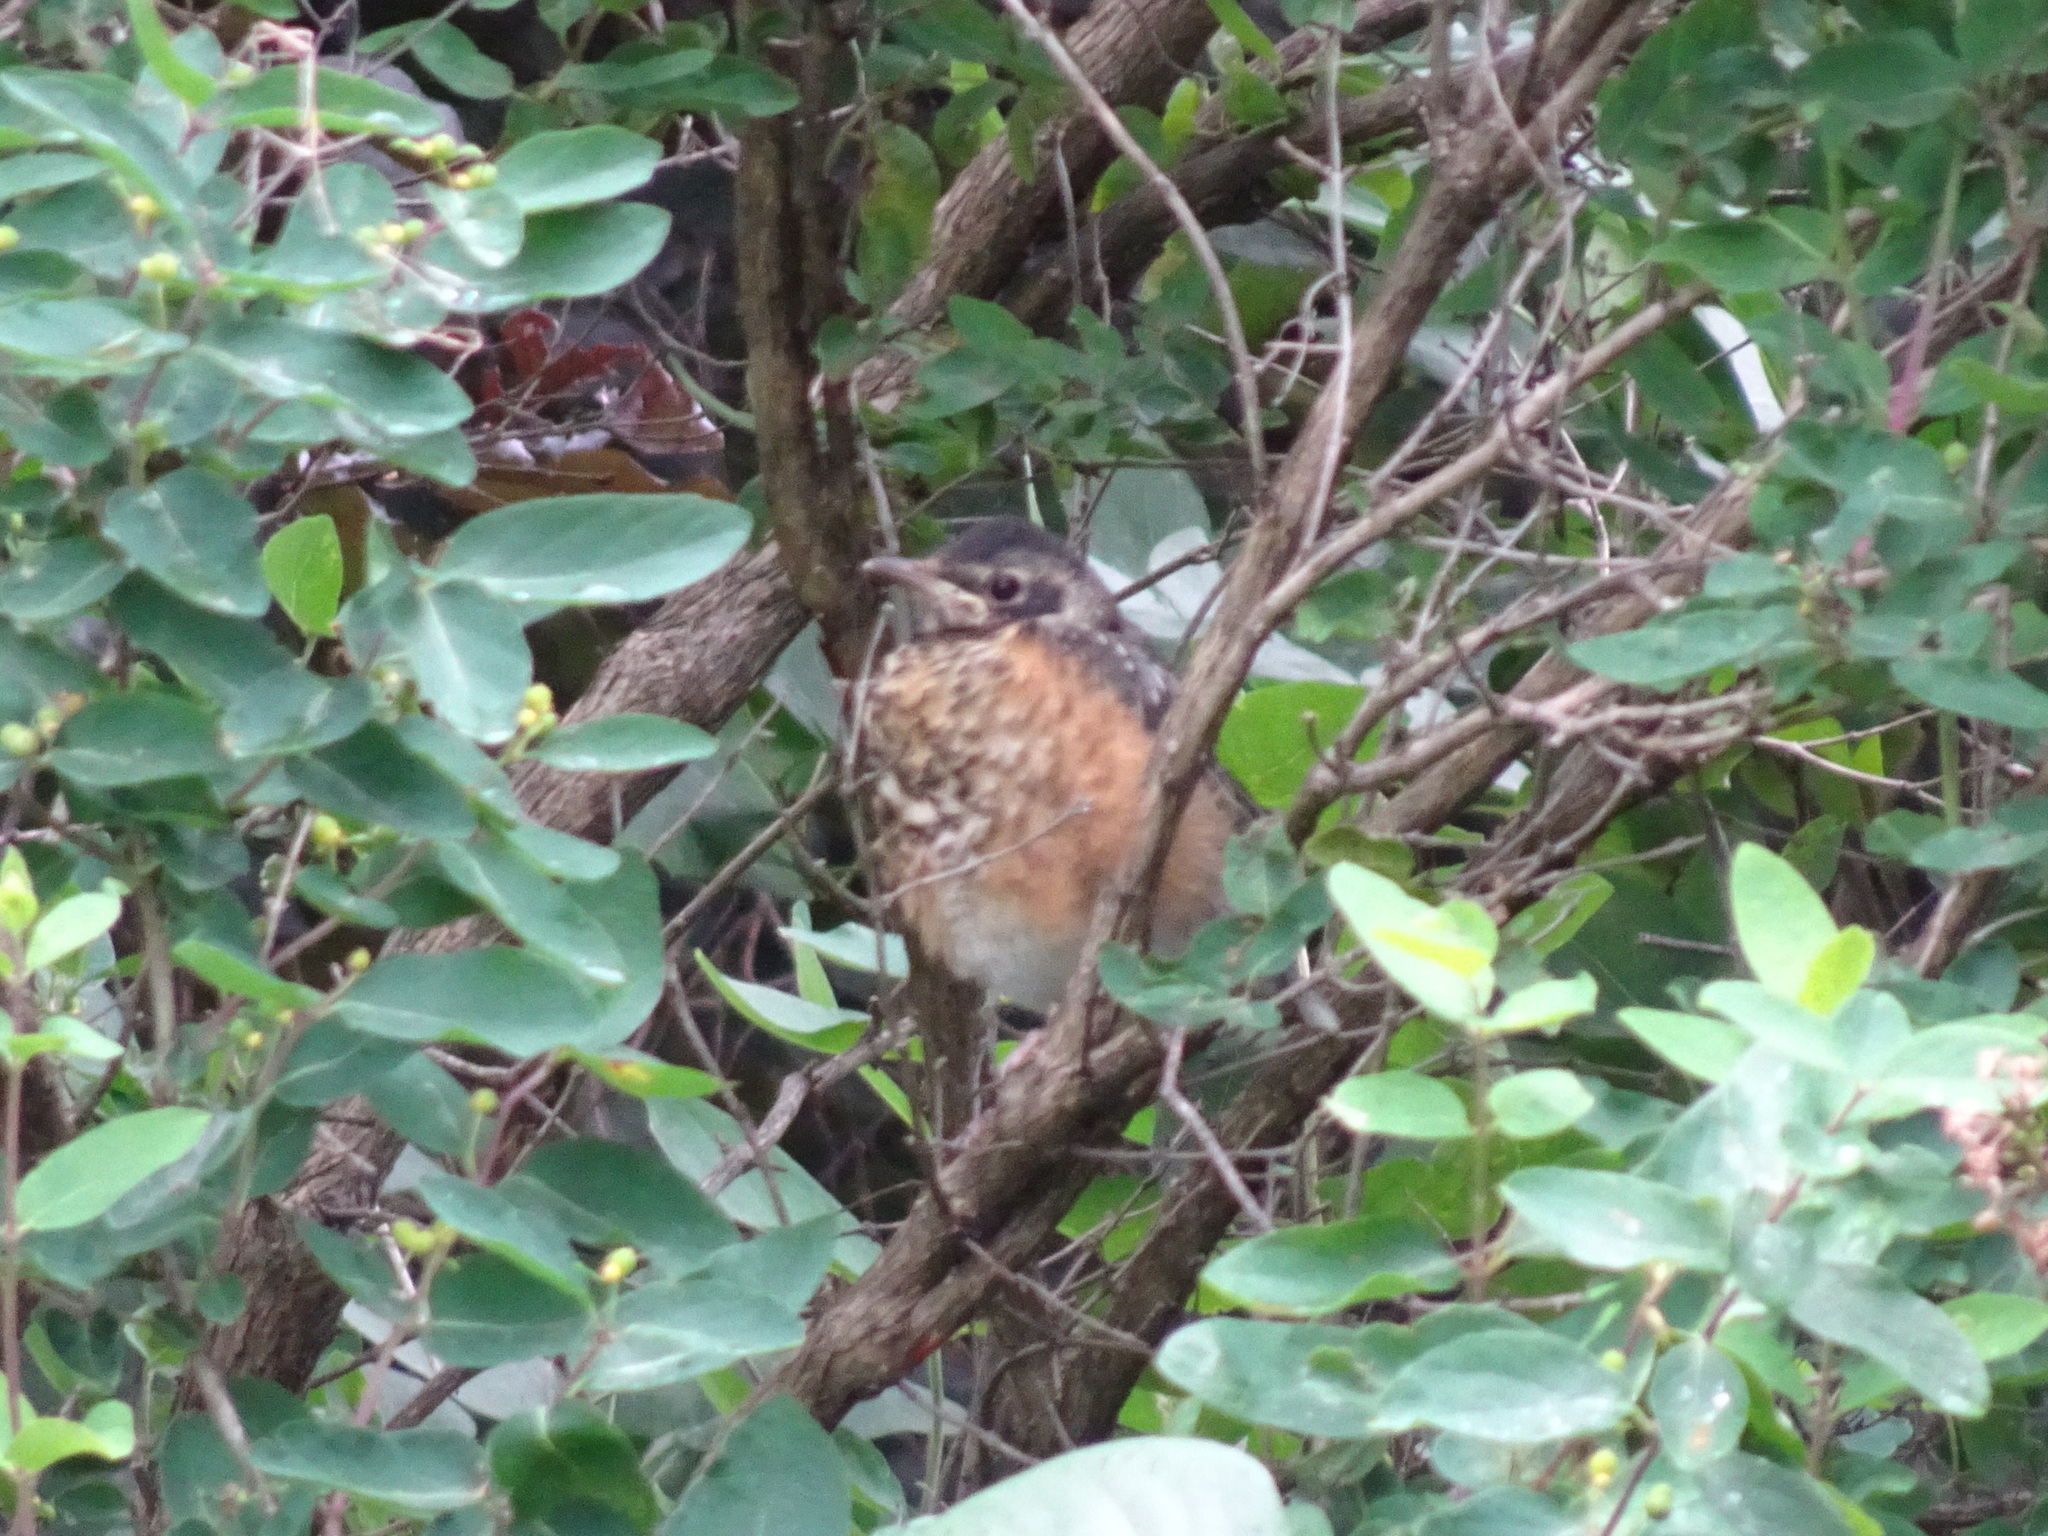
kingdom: Animalia
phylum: Chordata
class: Aves
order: Passeriformes
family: Turdidae
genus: Turdus
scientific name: Turdus migratorius
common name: American robin
